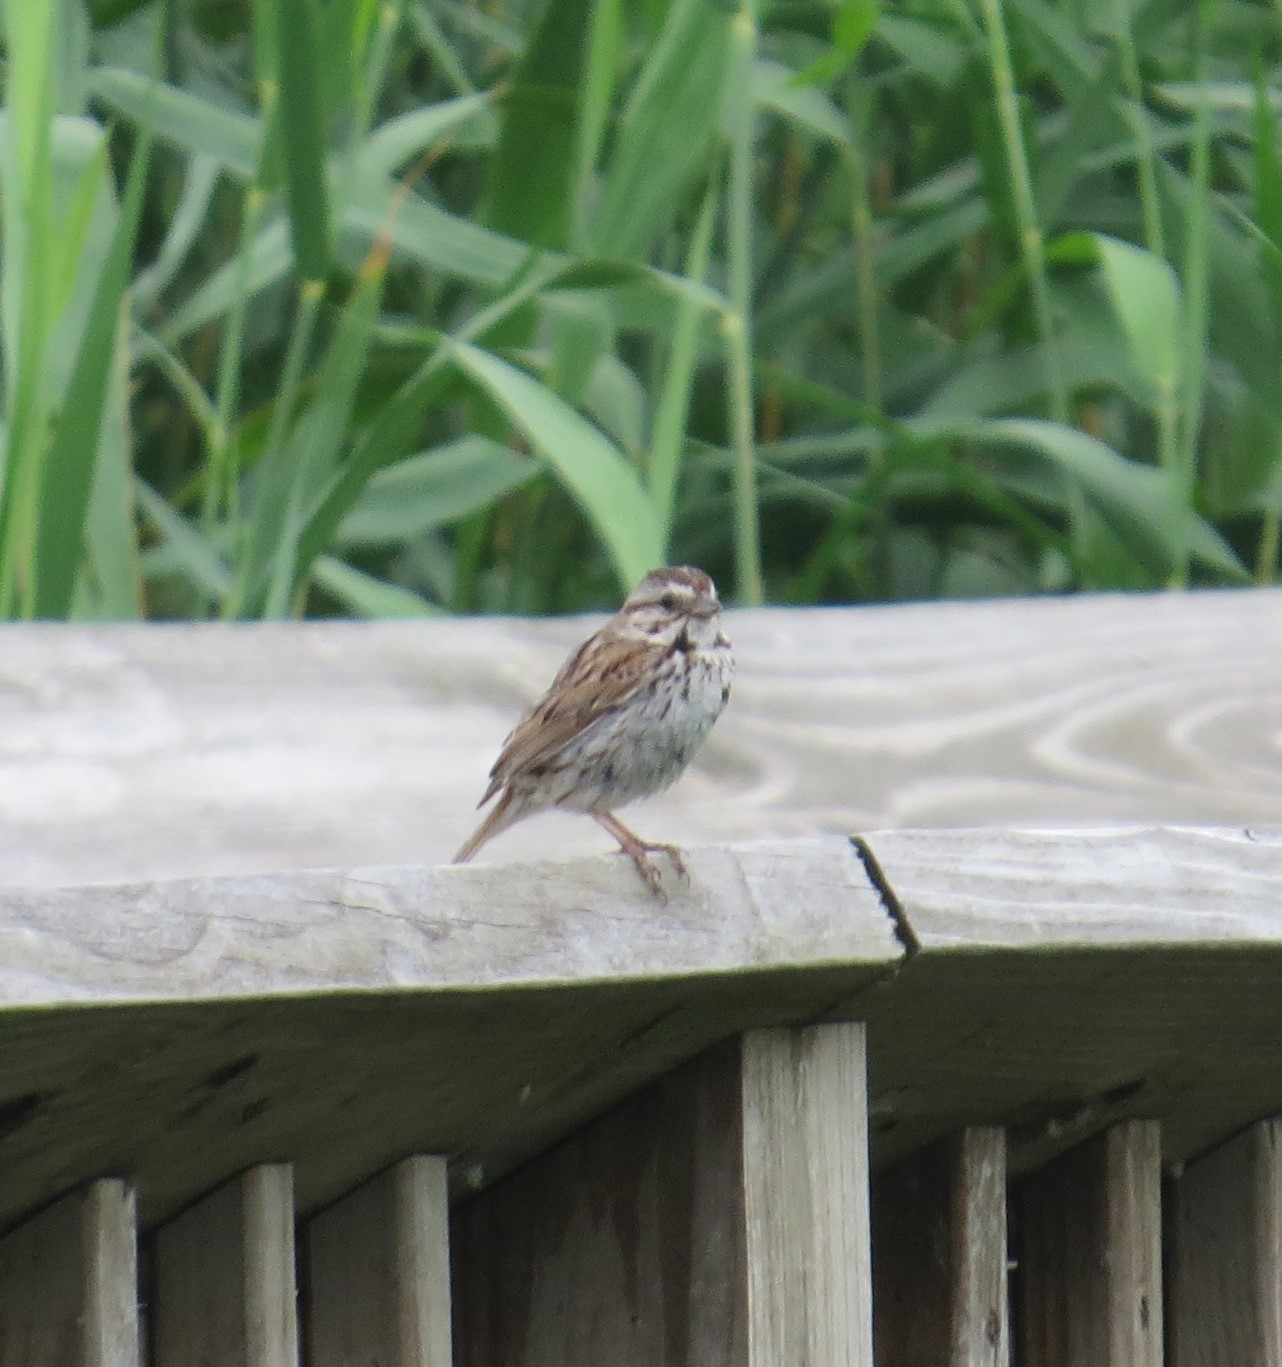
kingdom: Animalia
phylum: Chordata
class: Aves
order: Passeriformes
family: Passerellidae
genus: Melospiza
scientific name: Melospiza melodia
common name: Song sparrow
